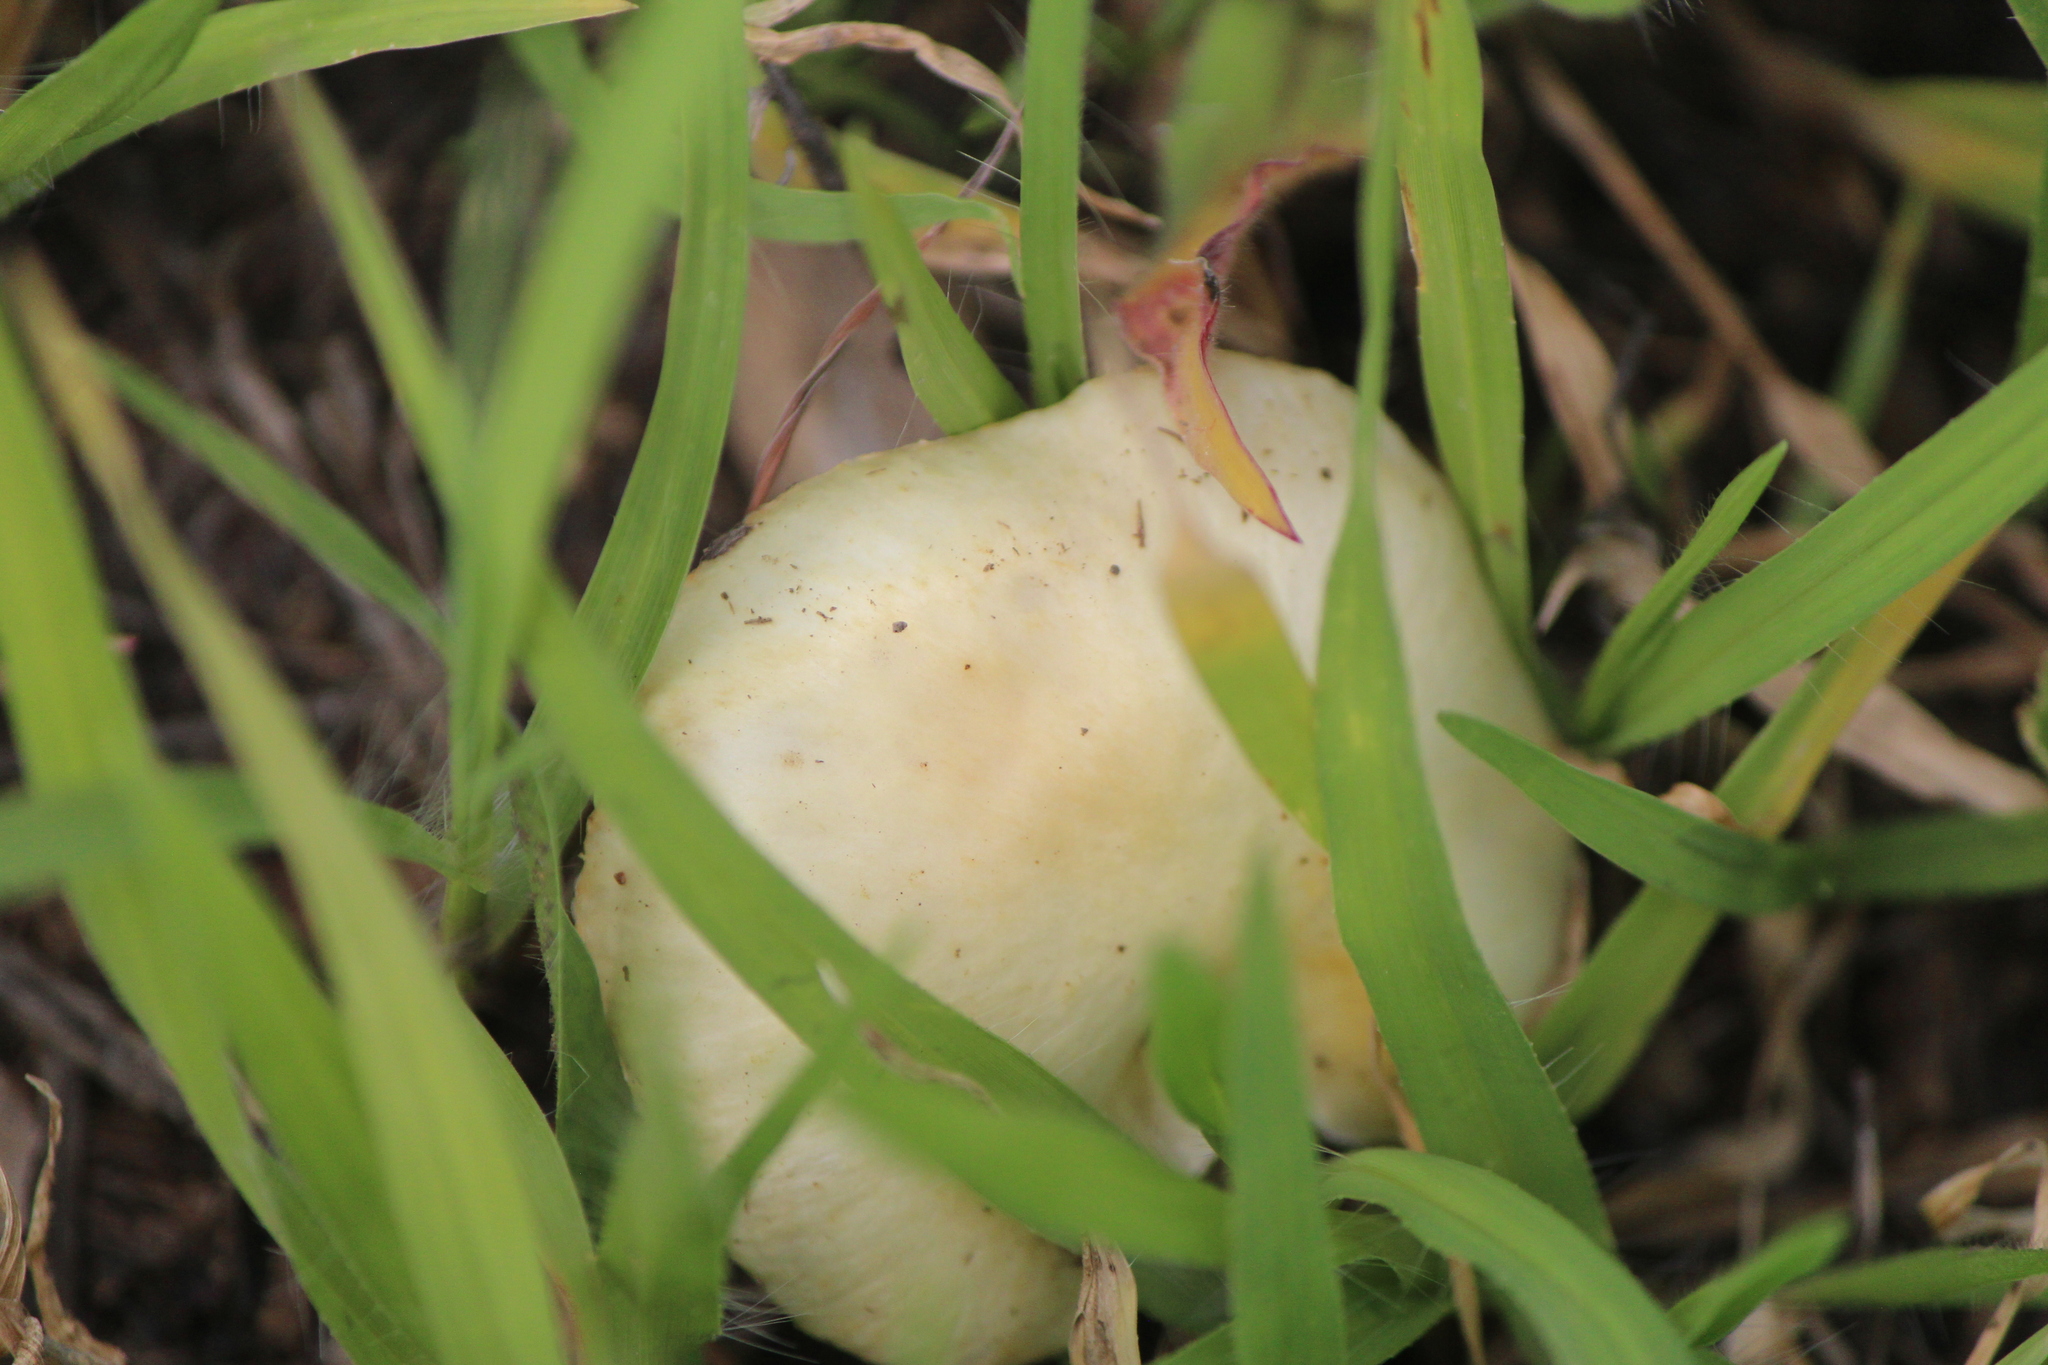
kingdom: Fungi
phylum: Basidiomycota
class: Agaricomycetes
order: Agaricales
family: Hymenogastraceae
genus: Psilocybe
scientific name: Psilocybe coronilla
